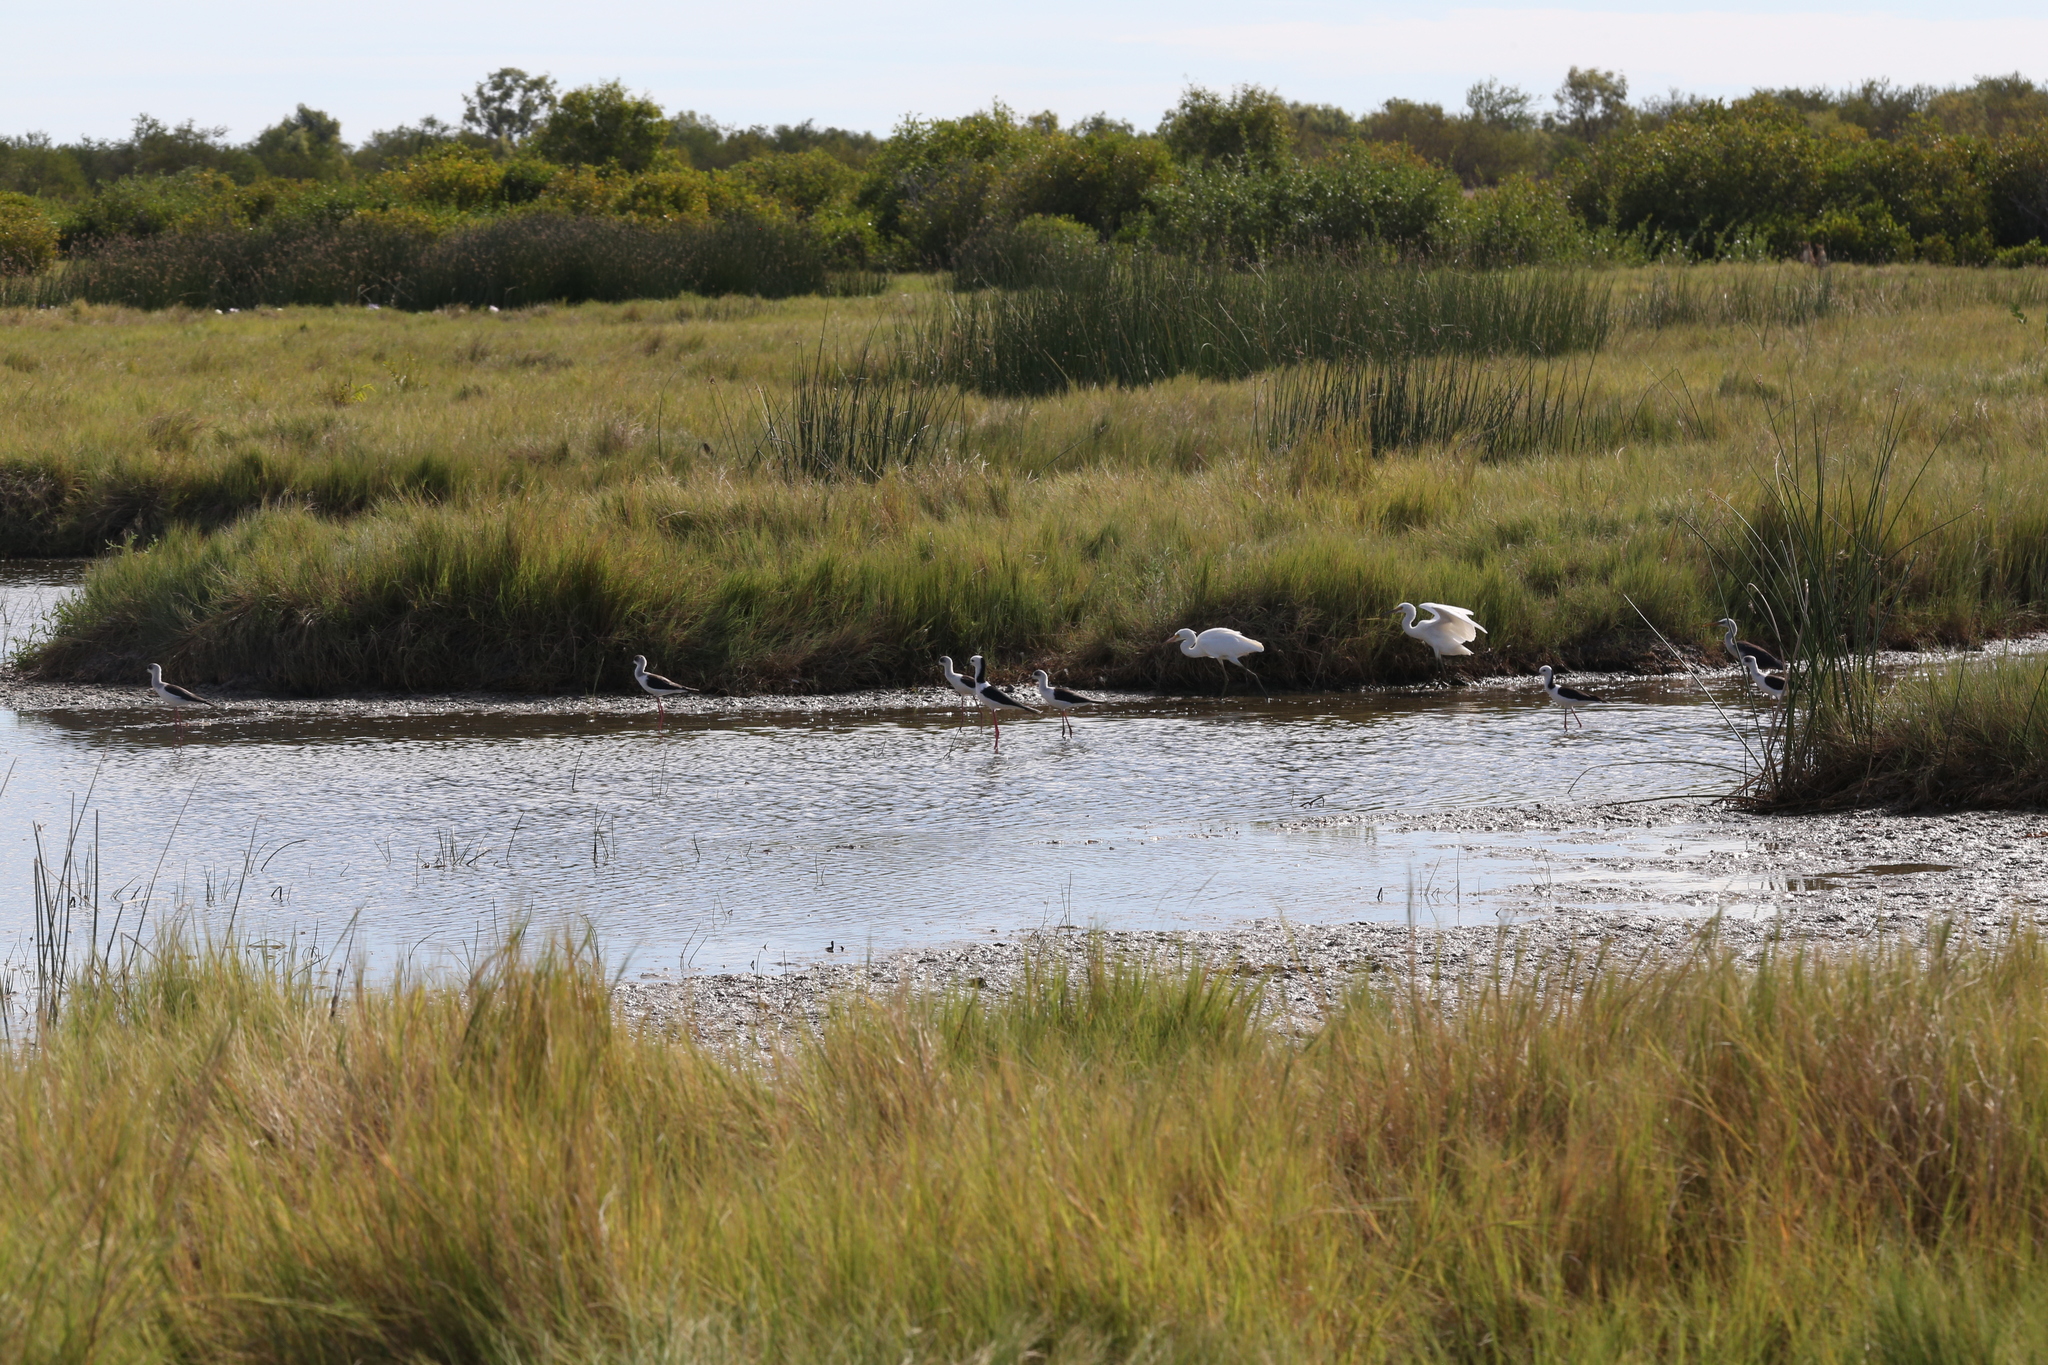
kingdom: Animalia
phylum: Chordata
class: Aves
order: Charadriiformes
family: Recurvirostridae
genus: Himantopus
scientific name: Himantopus leucocephalus
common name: White-headed stilt
